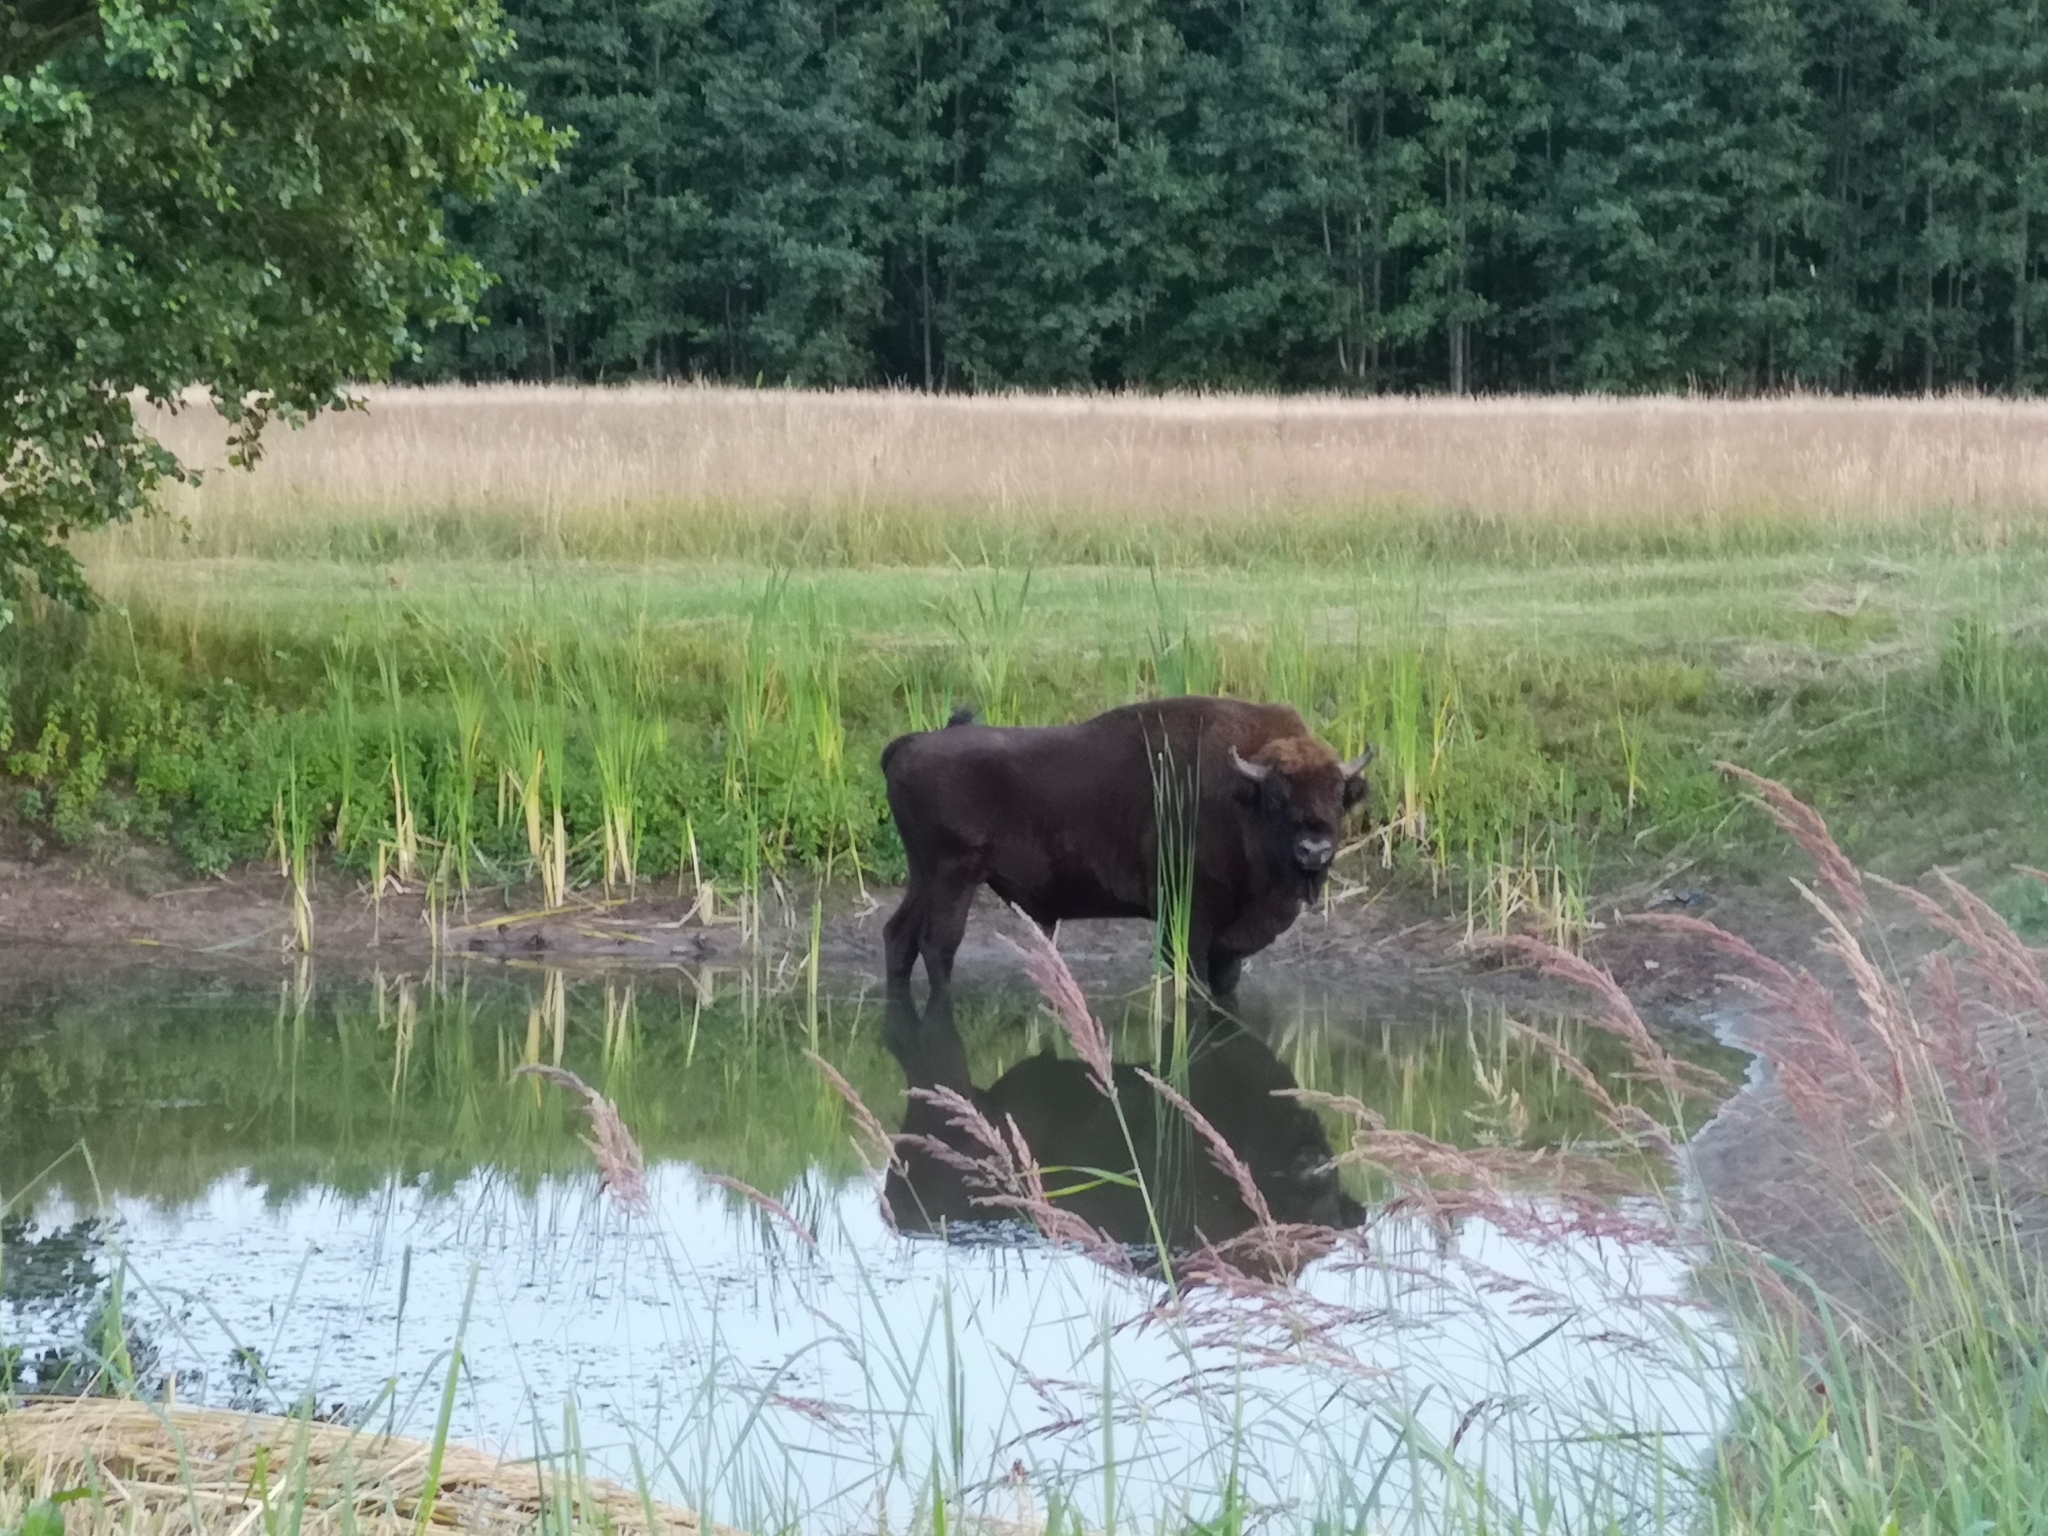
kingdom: Animalia
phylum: Chordata
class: Mammalia
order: Artiodactyla
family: Bovidae
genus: Bison
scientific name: Bison bonasus
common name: European bison
